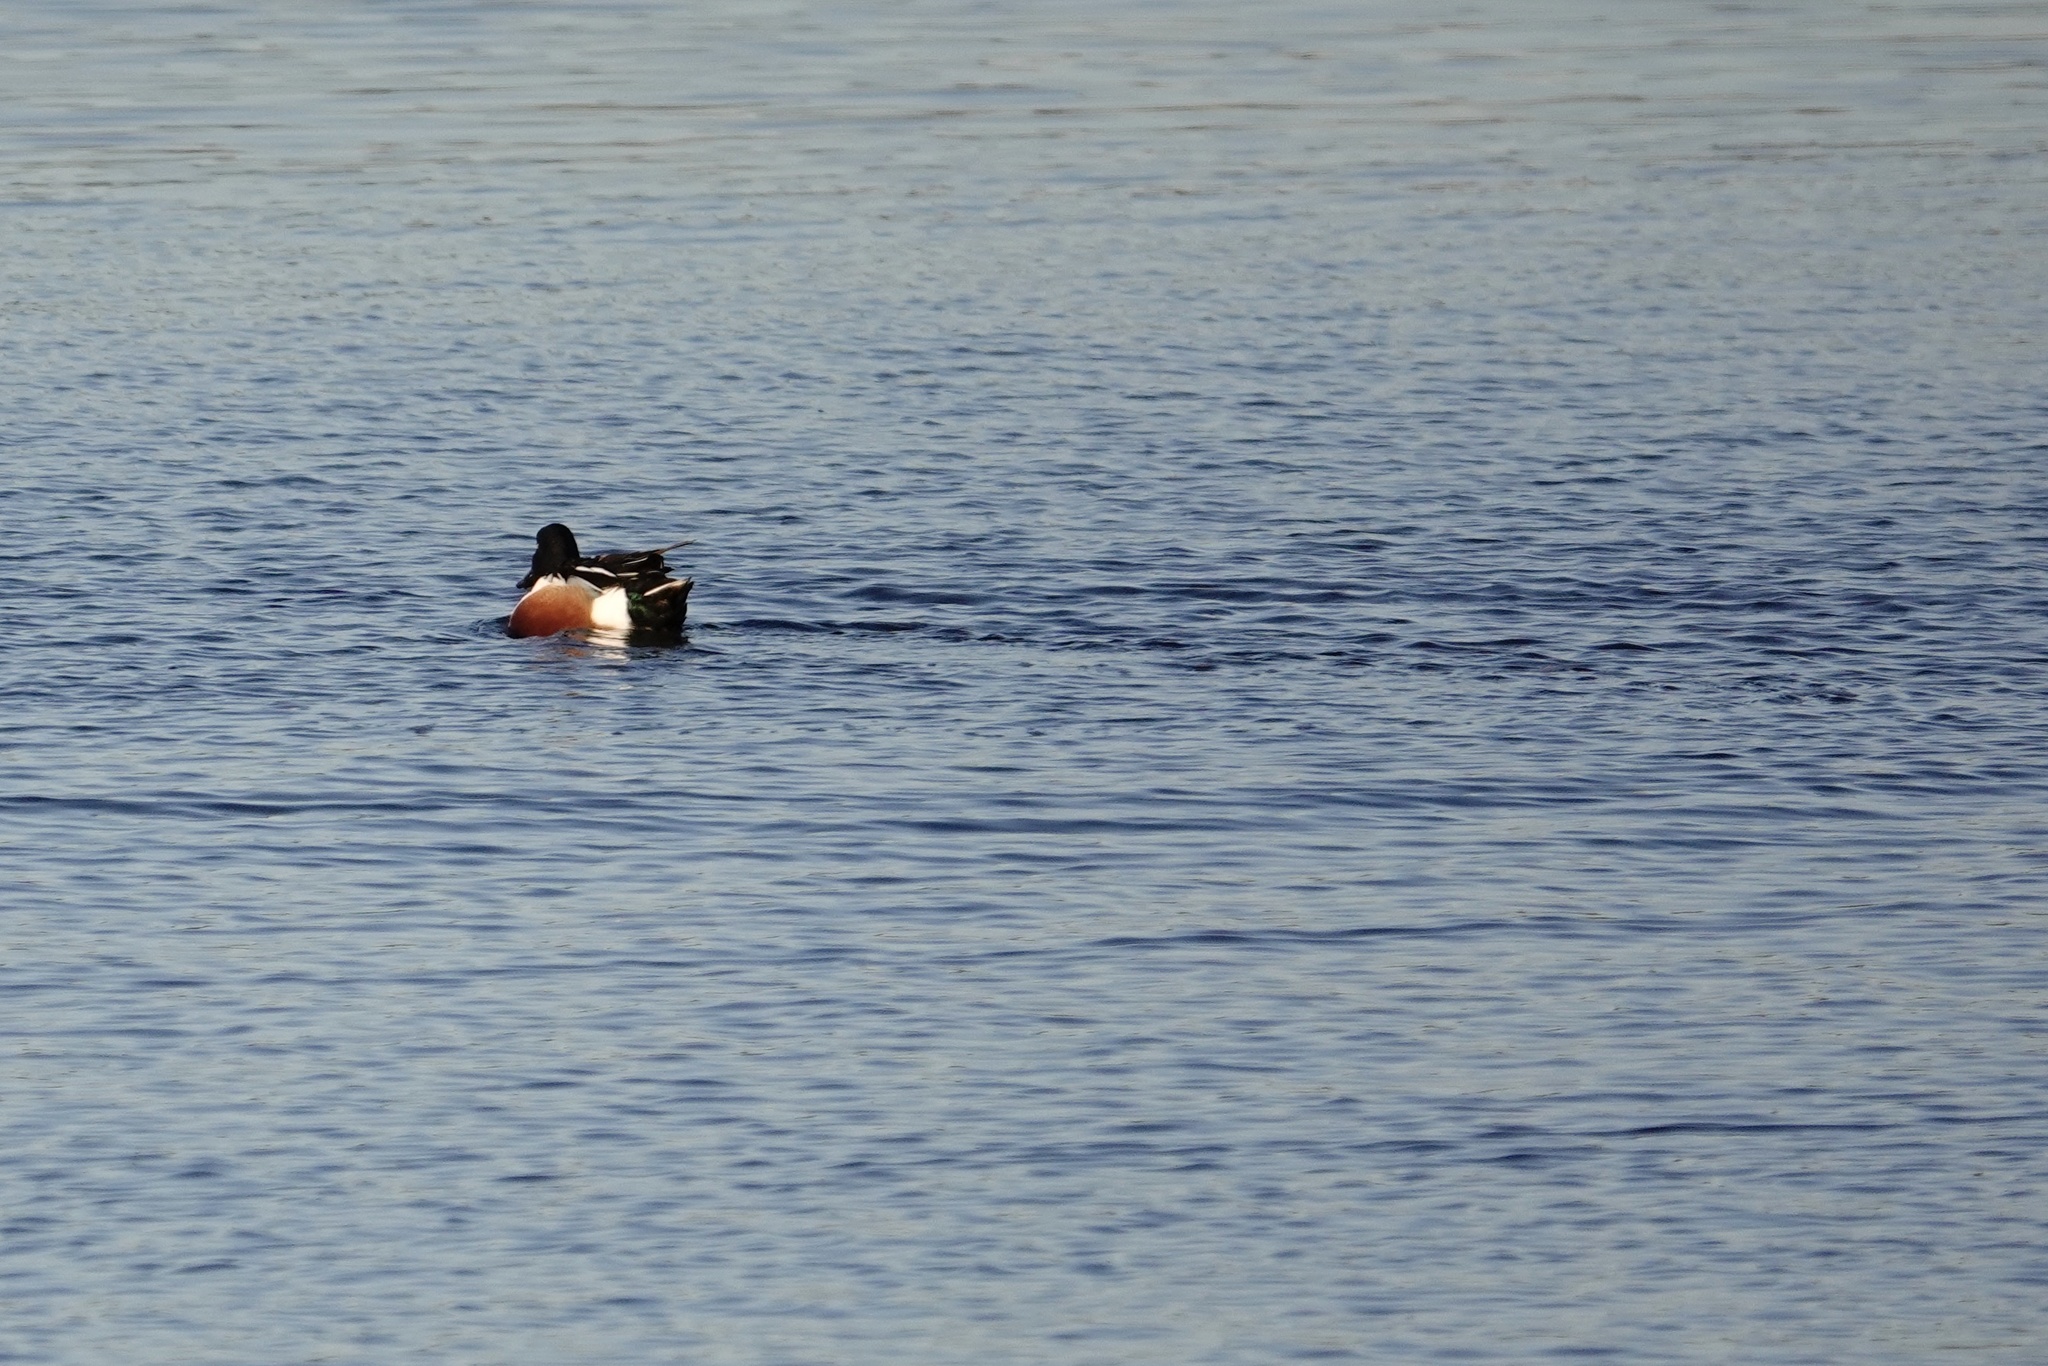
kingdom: Animalia
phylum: Chordata
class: Aves
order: Anseriformes
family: Anatidae
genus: Spatula
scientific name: Spatula clypeata
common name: Northern shoveler
